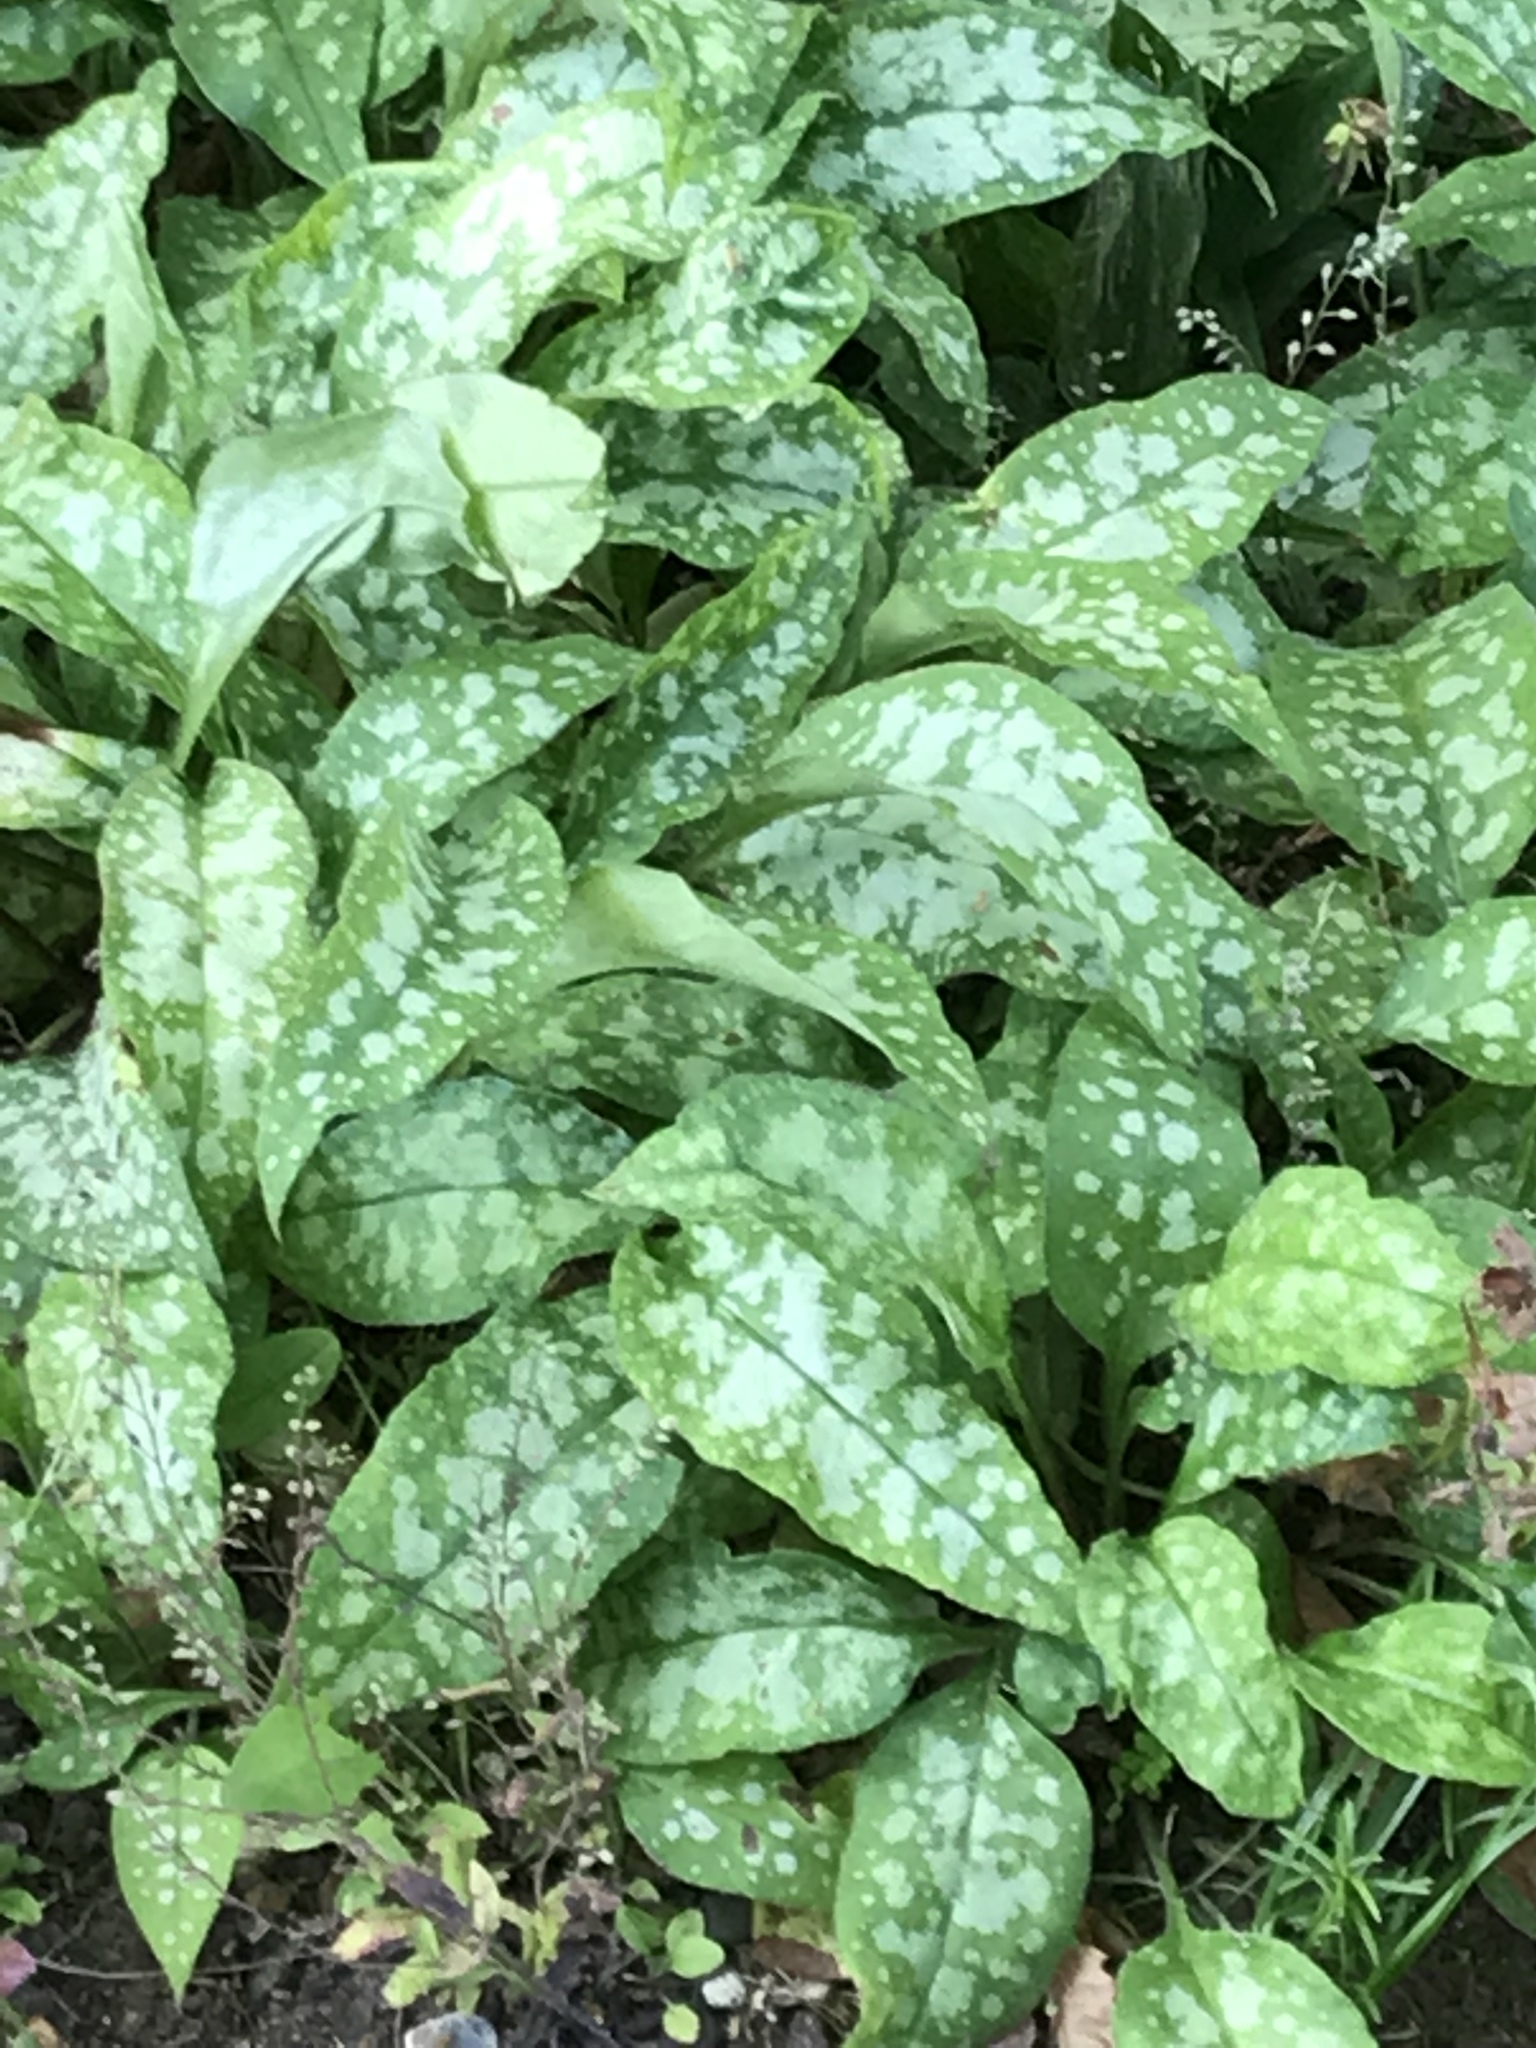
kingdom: Plantae
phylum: Tracheophyta
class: Magnoliopsida
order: Boraginales
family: Boraginaceae
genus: Pulmonaria
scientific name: Pulmonaria officinalis
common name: Lungwort
